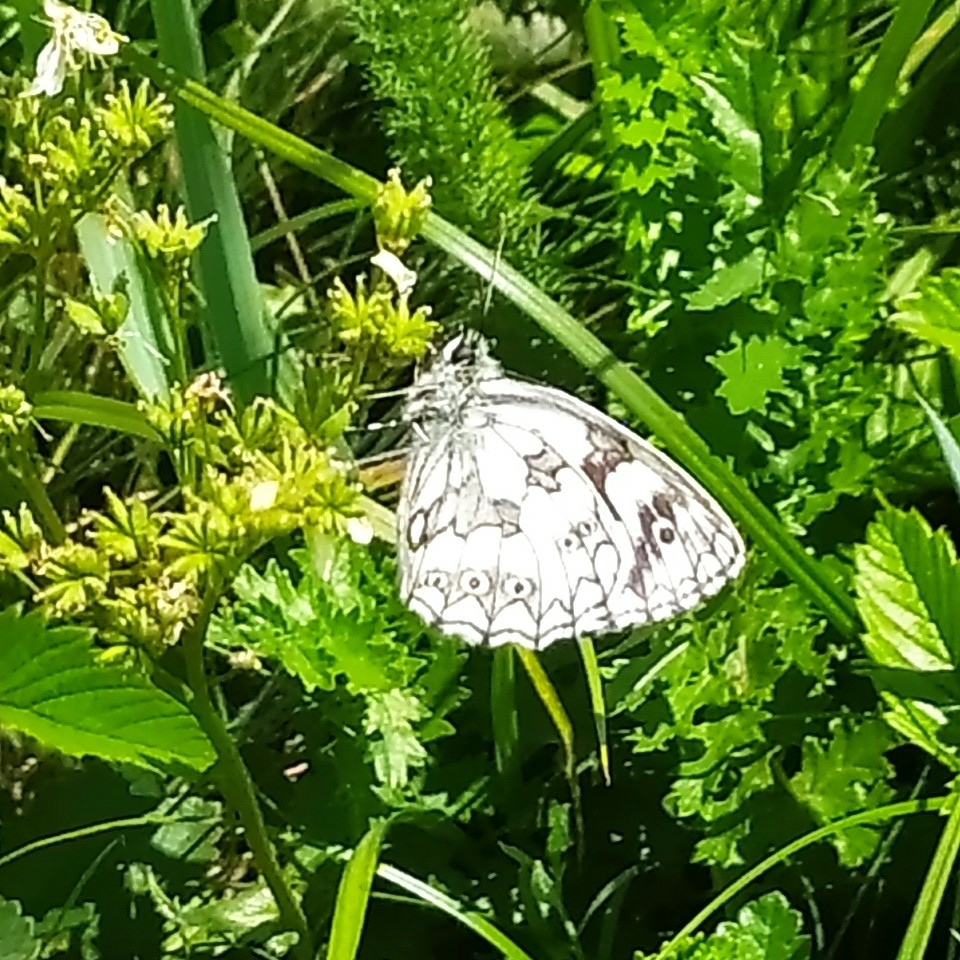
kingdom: Animalia
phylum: Arthropoda
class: Insecta
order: Lepidoptera
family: Nymphalidae
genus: Melanargia
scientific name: Melanargia galathea
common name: Marbled white
